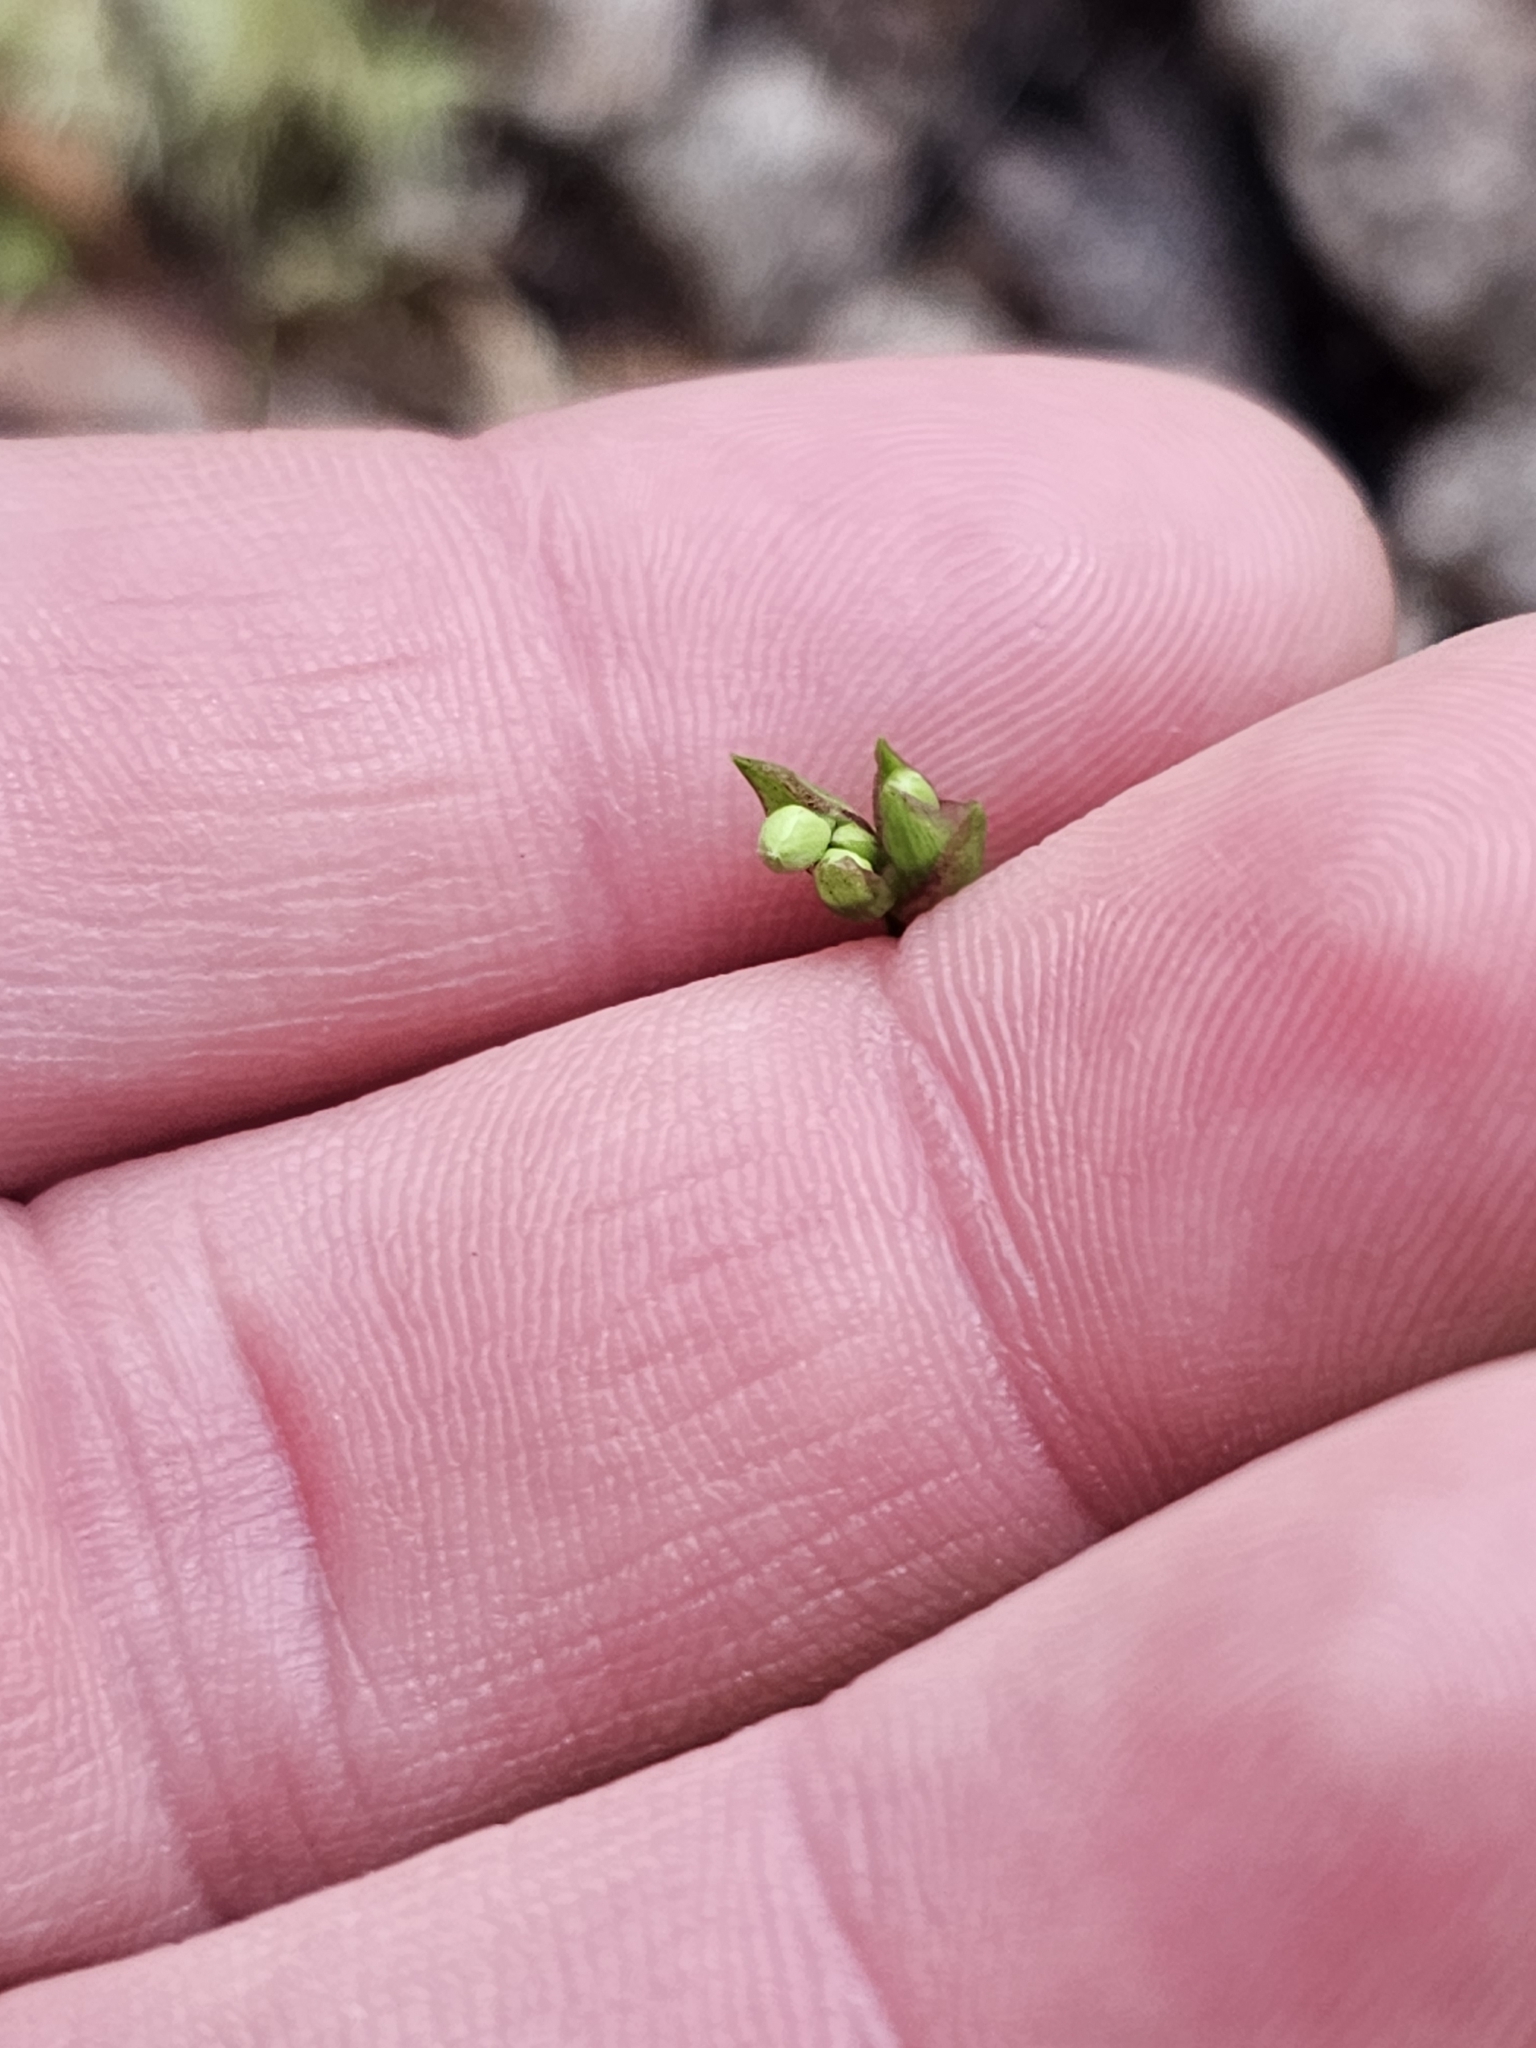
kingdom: Plantae
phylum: Tracheophyta
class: Liliopsida
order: Asparagales
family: Iridaceae
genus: Libertia
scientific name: Libertia micrantha
